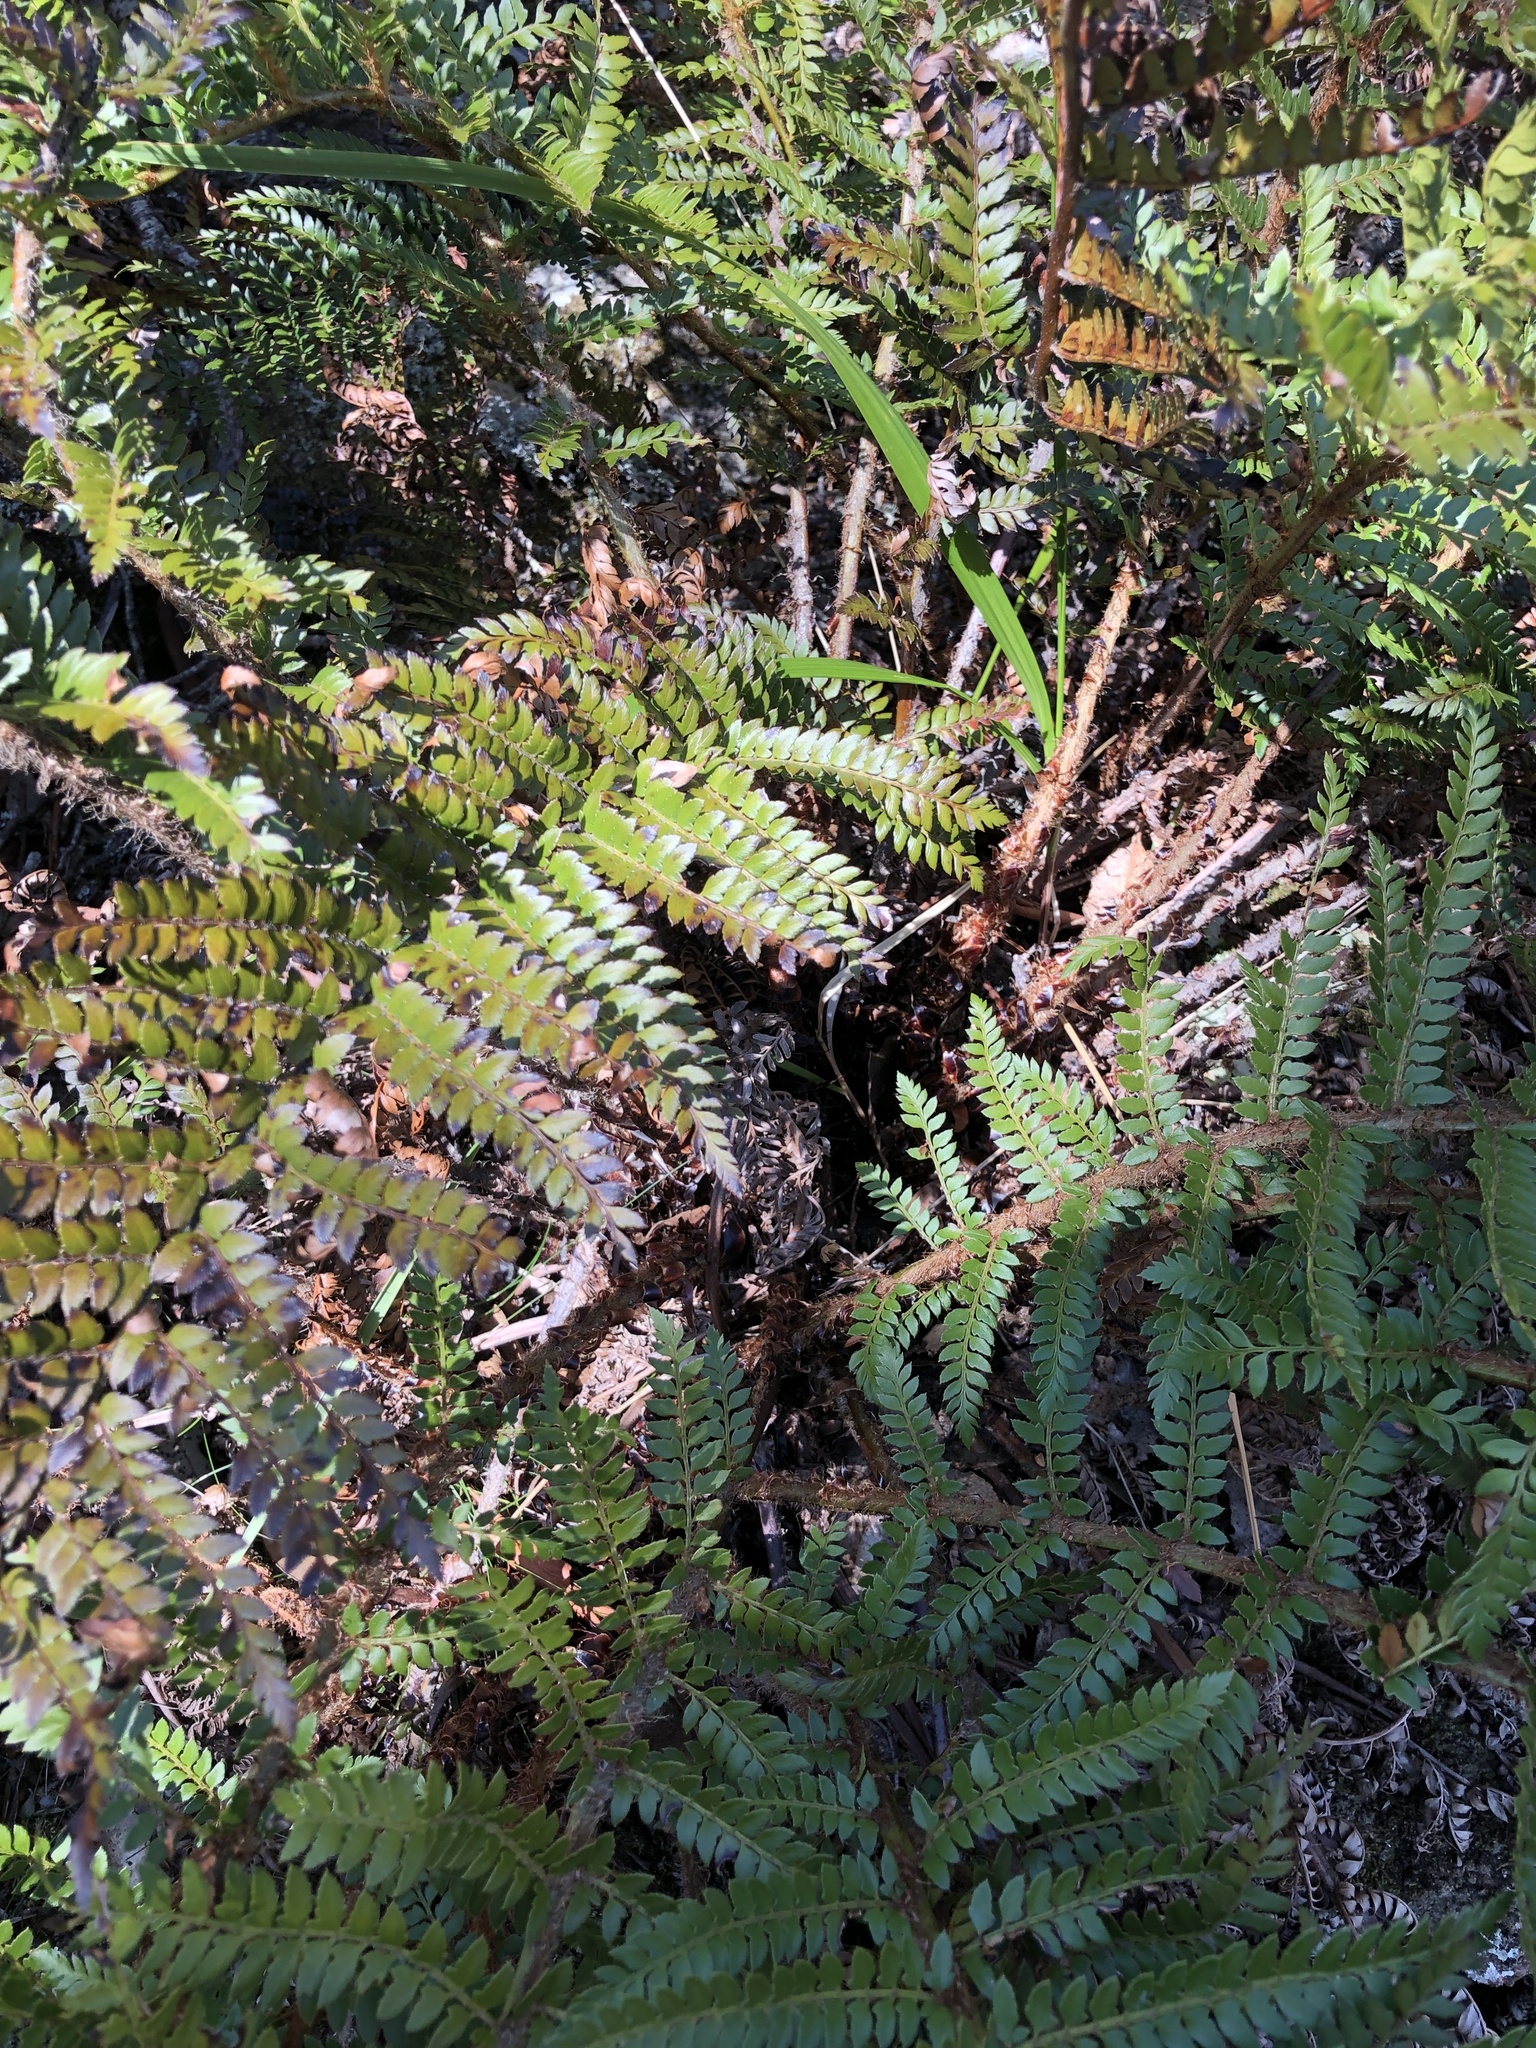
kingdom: Plantae
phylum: Tracheophyta
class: Polypodiopsida
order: Polypodiales
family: Dryopteridaceae
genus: Polystichum
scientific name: Polystichum proliferum
